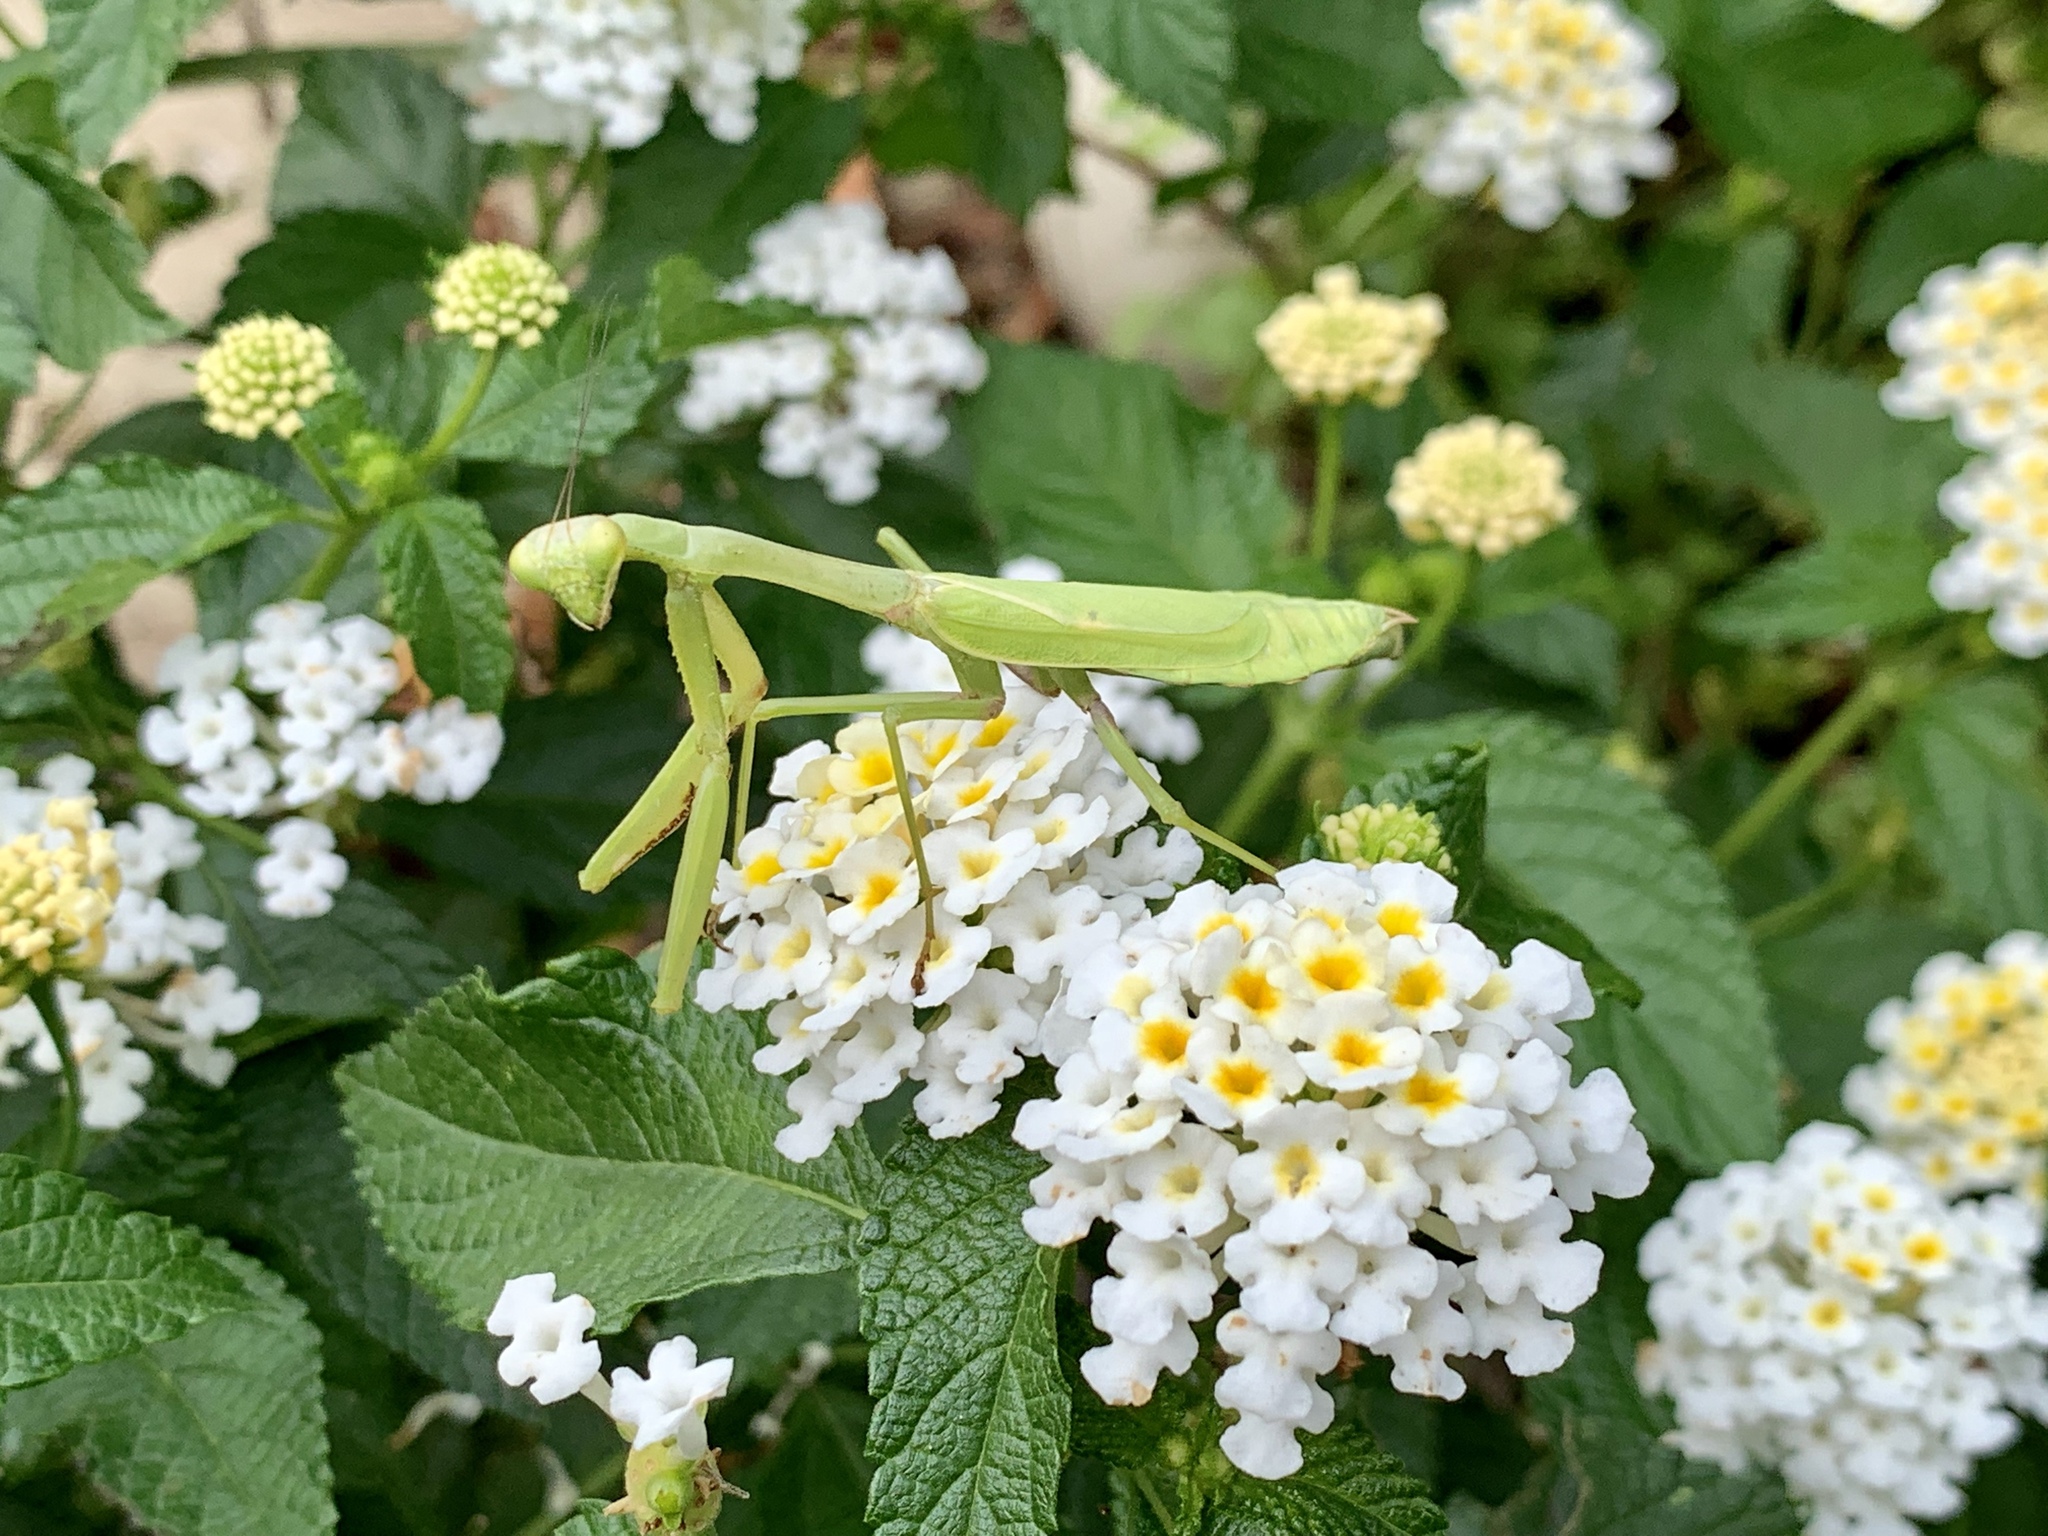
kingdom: Animalia
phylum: Arthropoda
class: Insecta
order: Mantodea
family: Mantidae
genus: Stagmomantis
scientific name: Stagmomantis carolina
